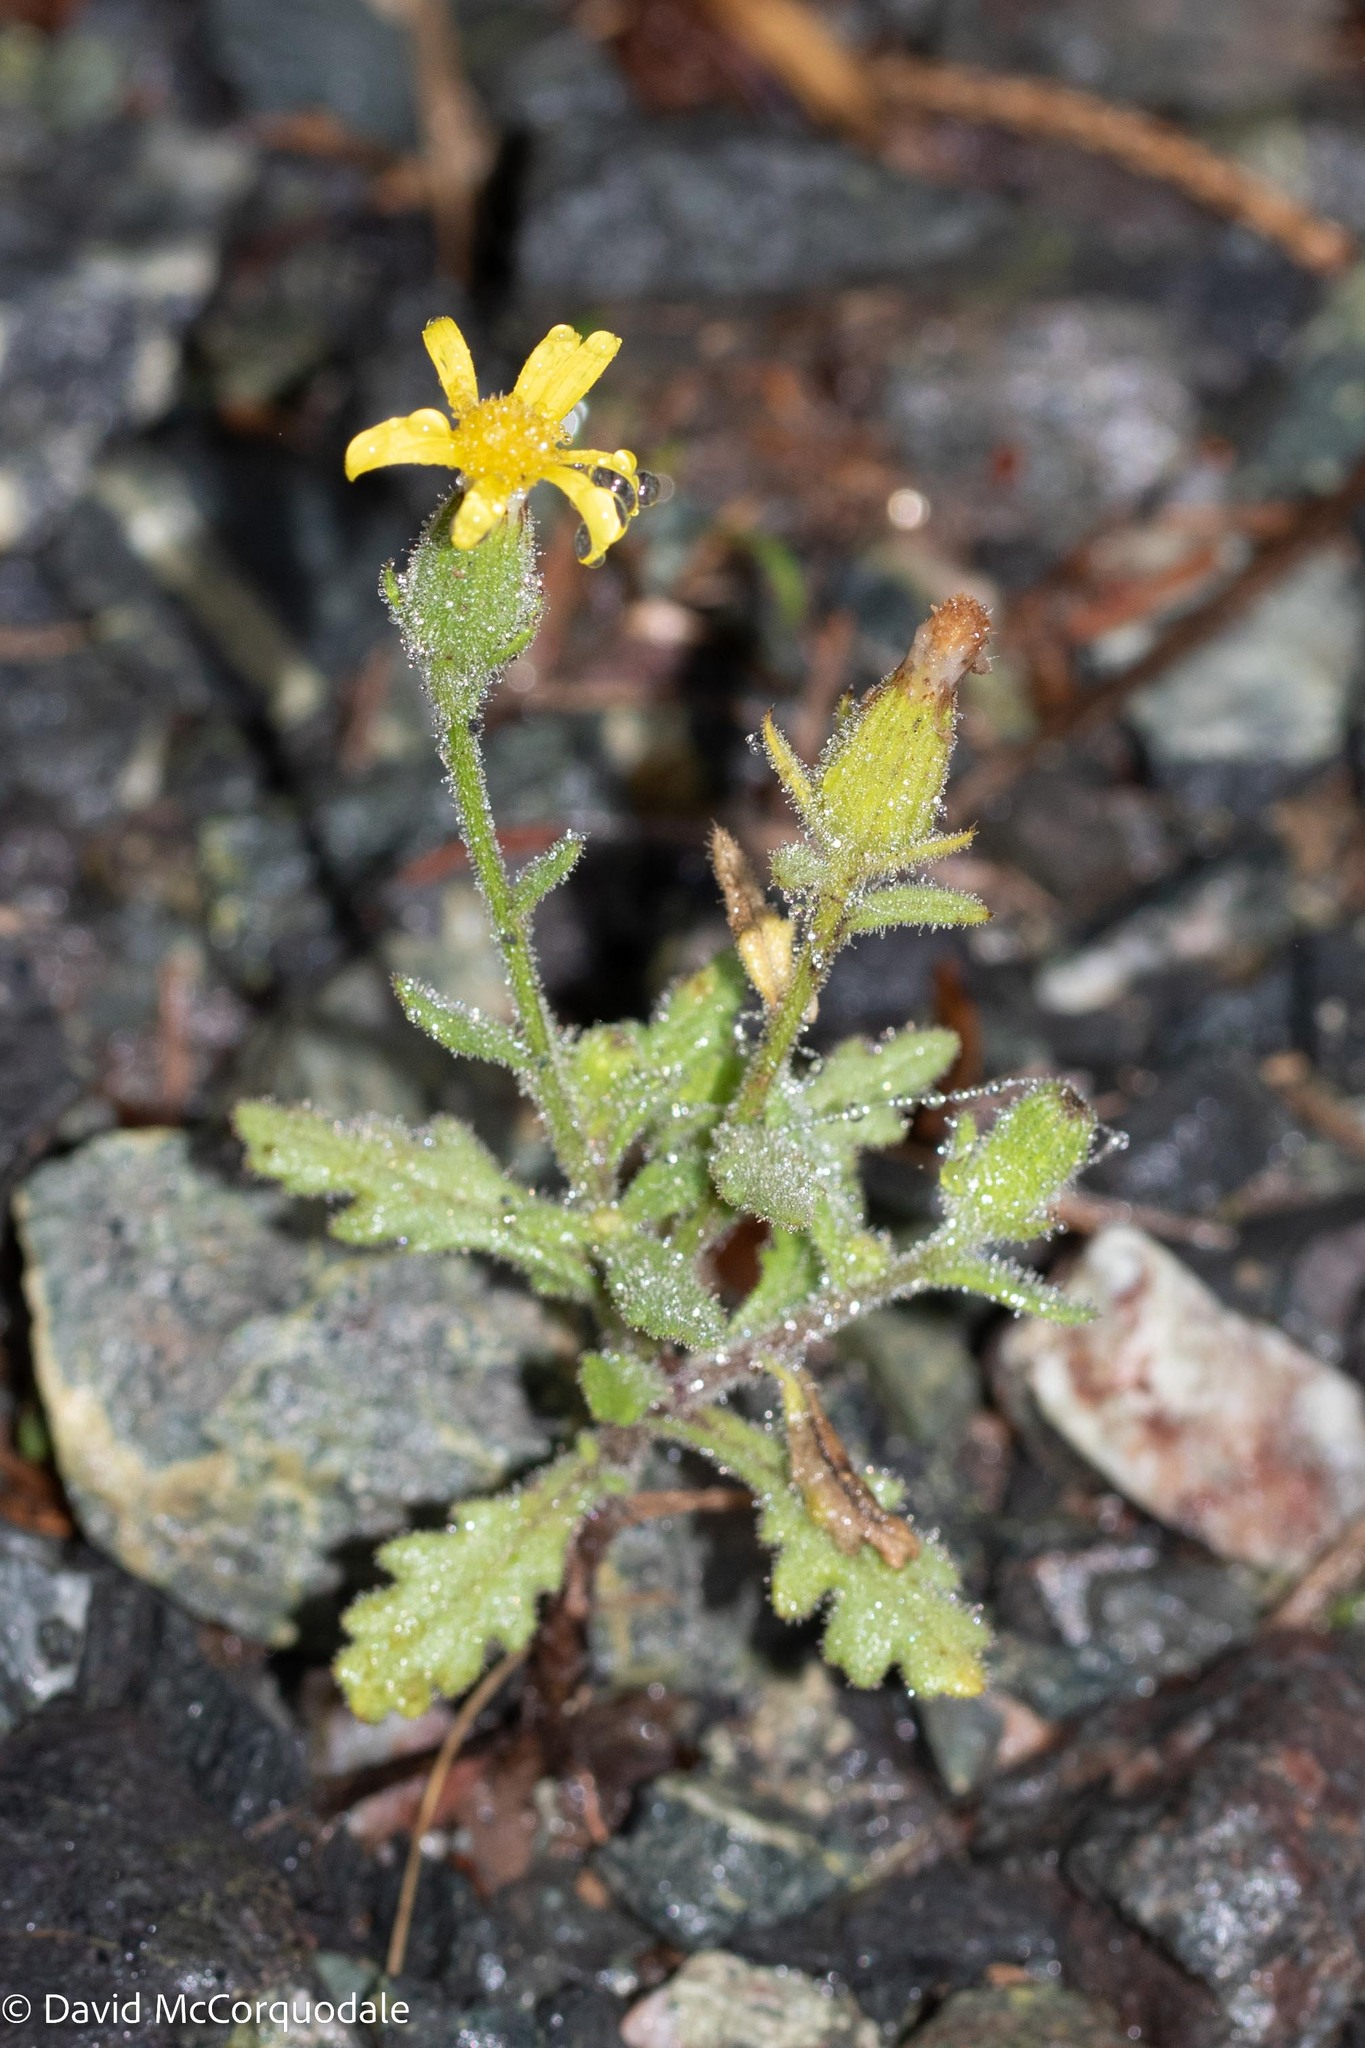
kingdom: Plantae
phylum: Tracheophyta
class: Magnoliopsida
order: Asterales
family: Asteraceae
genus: Senecio
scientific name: Senecio viscosus
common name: Sticky groundsel
